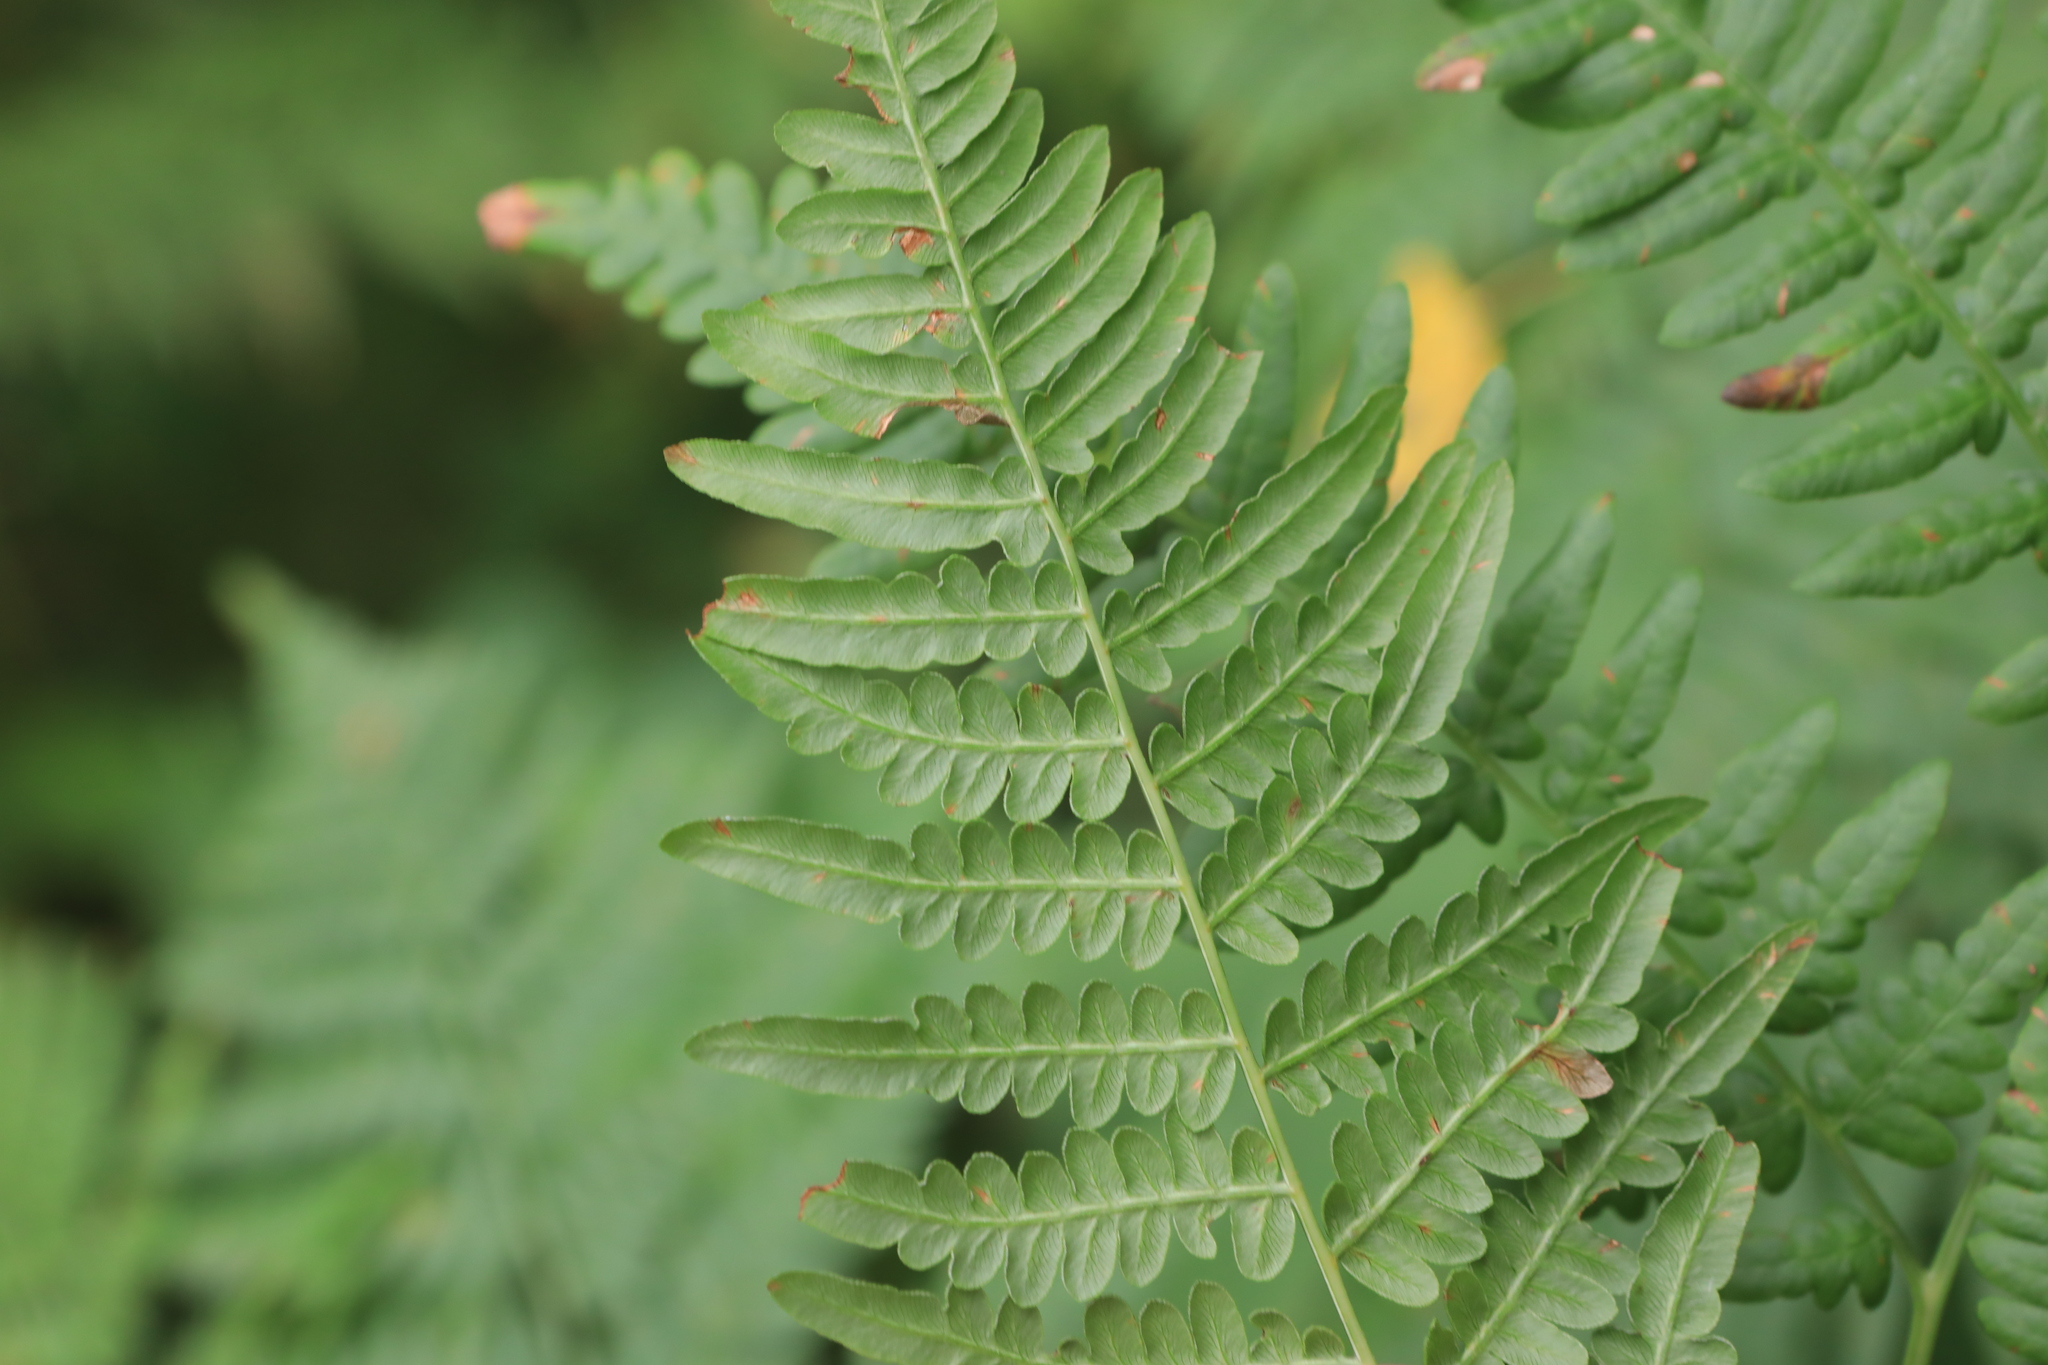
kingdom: Plantae
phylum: Tracheophyta
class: Polypodiopsida
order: Polypodiales
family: Dennstaedtiaceae
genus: Pteridium
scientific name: Pteridium aquilinum
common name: Bracken
